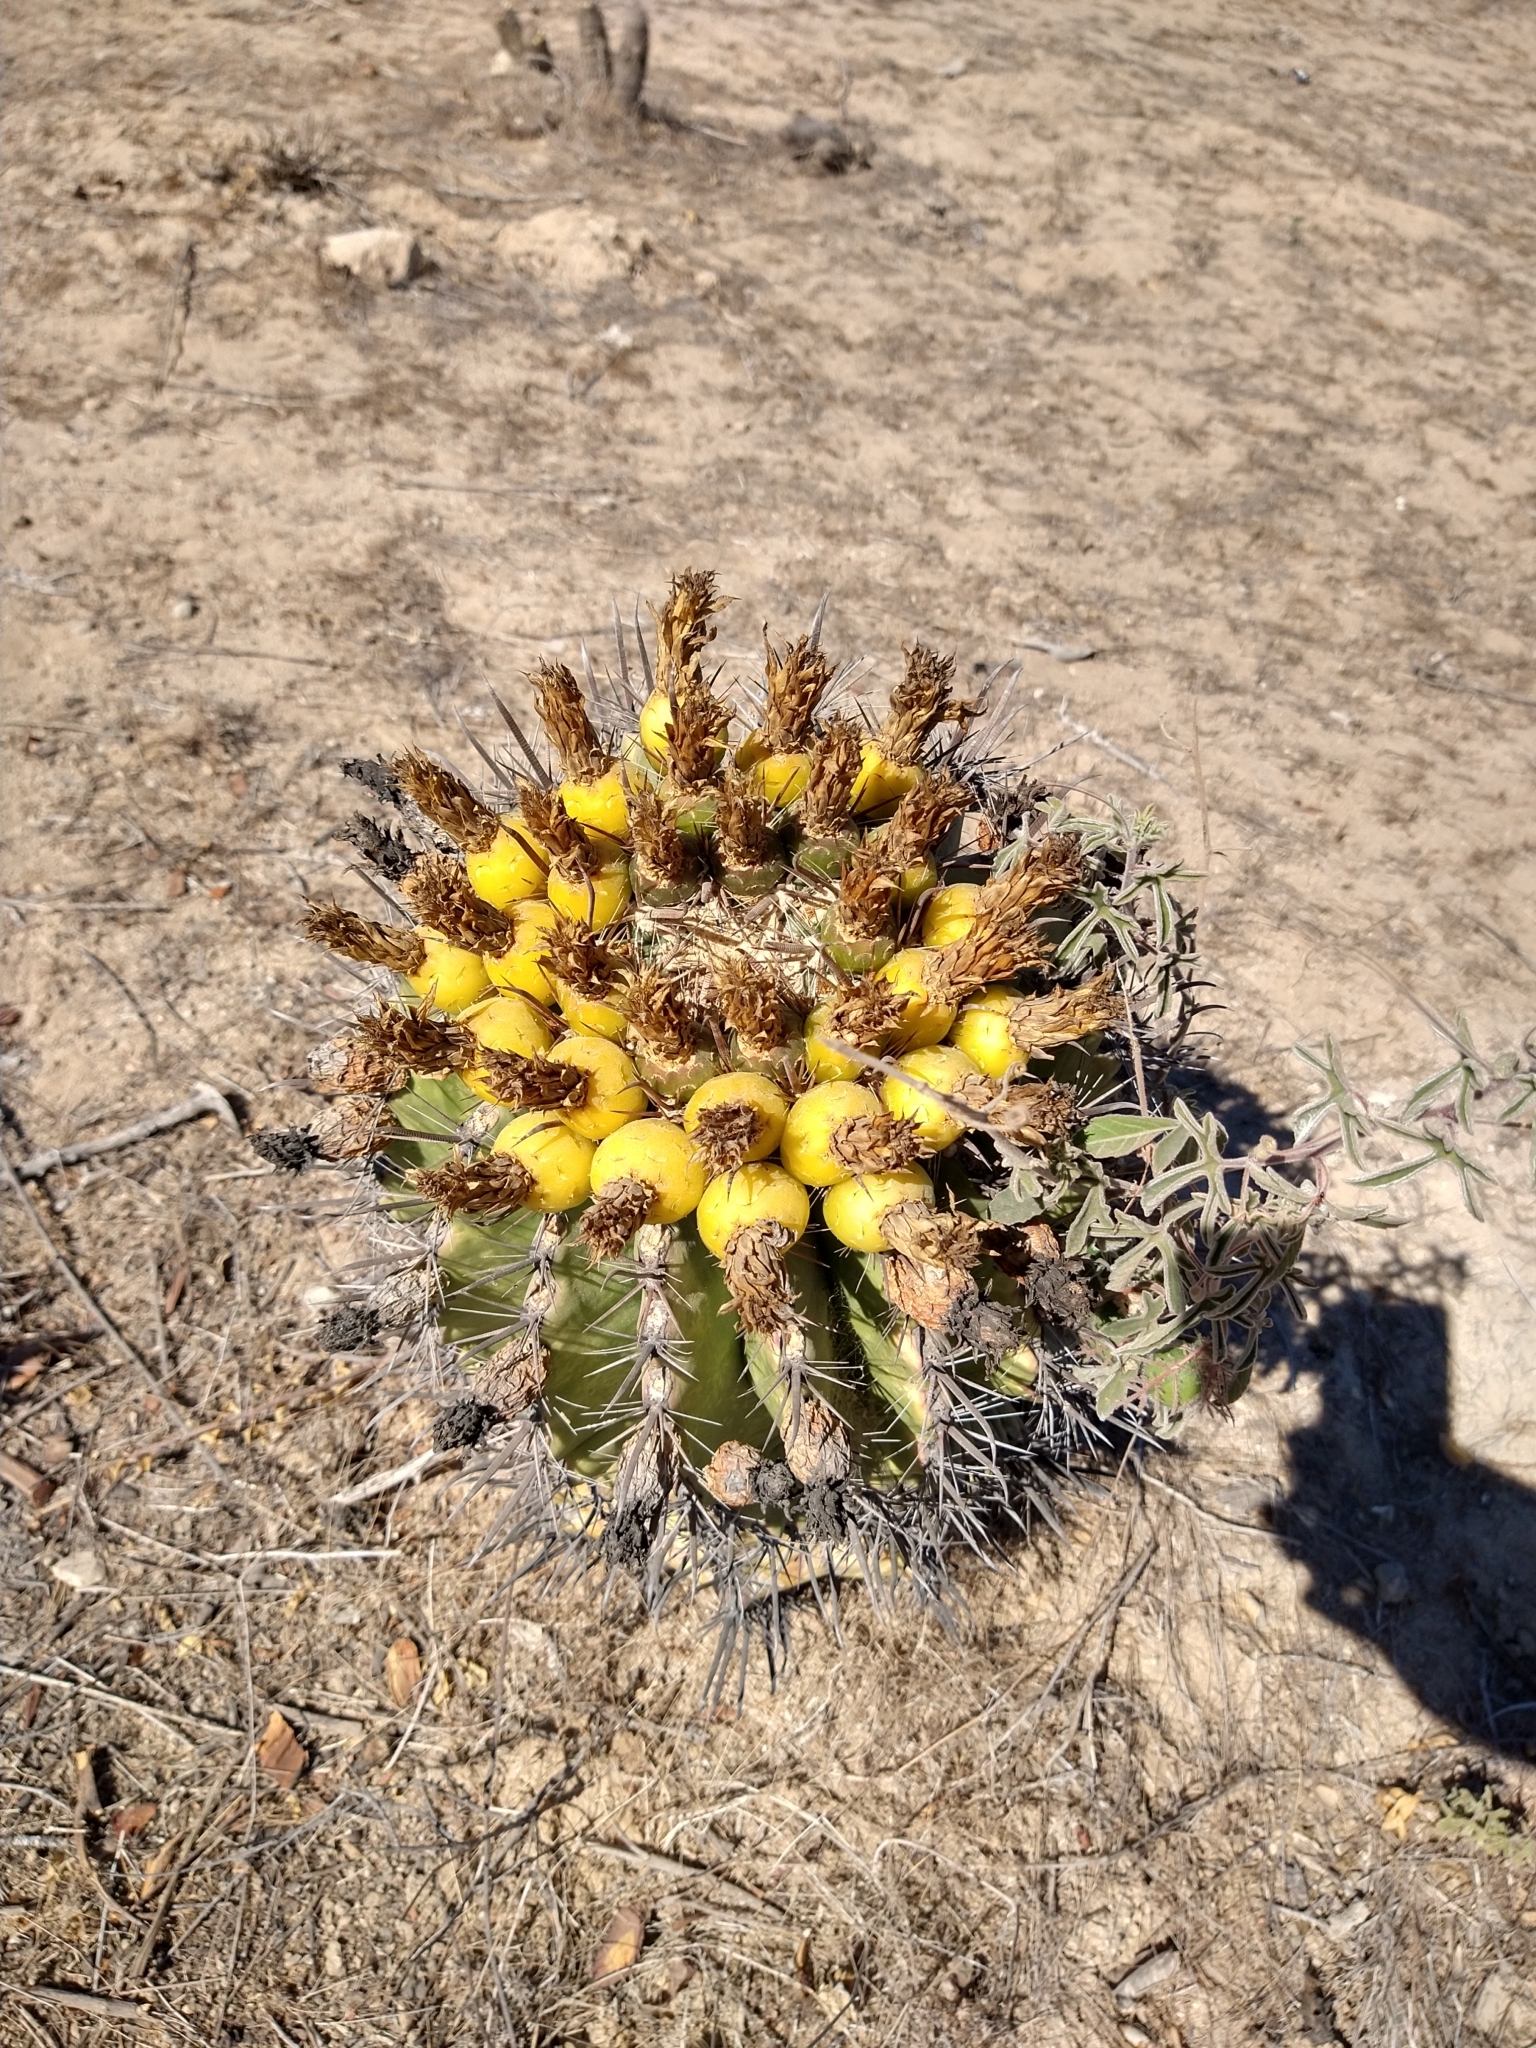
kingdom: Plantae
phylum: Tracheophyta
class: Magnoliopsida
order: Caryophyllales
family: Cactaceae
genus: Ferocactus
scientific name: Ferocactus townsendianus
